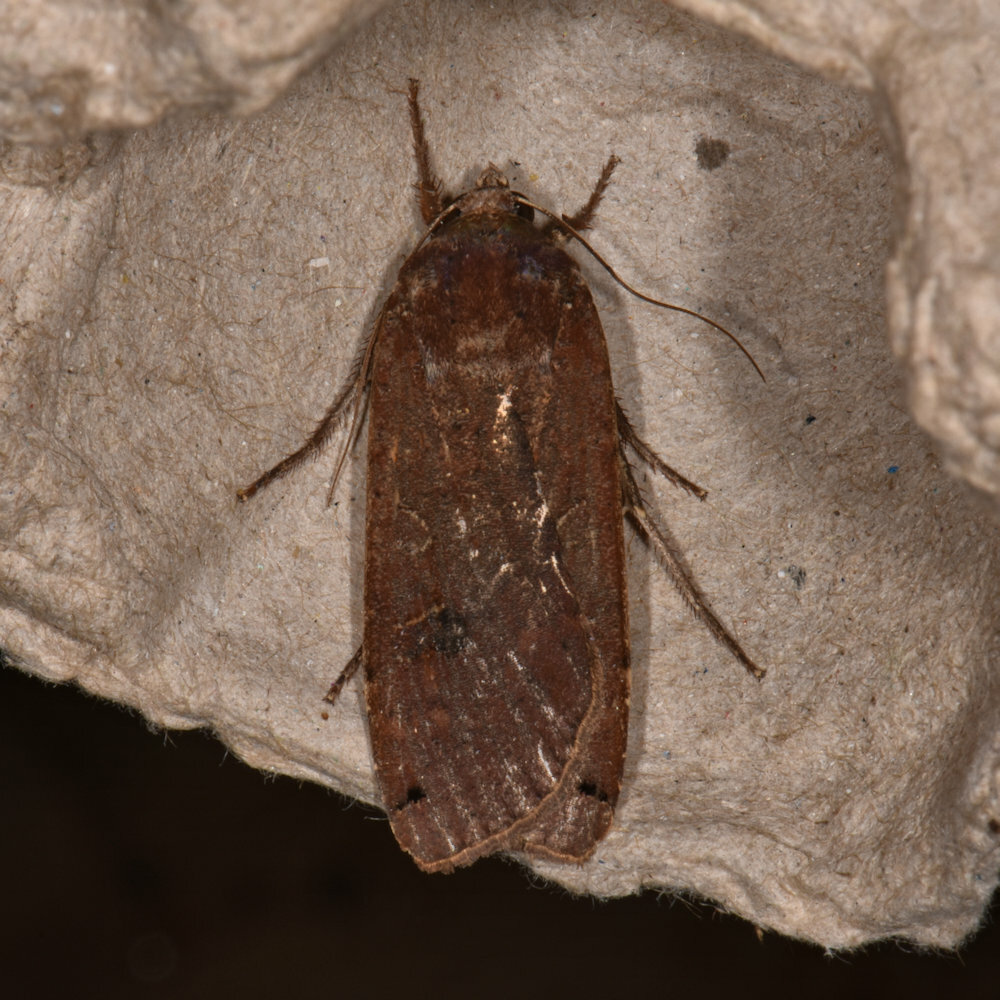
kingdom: Animalia
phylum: Arthropoda
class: Insecta
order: Lepidoptera
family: Noctuidae
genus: Noctua
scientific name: Noctua pronuba
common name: Large yellow underwing
